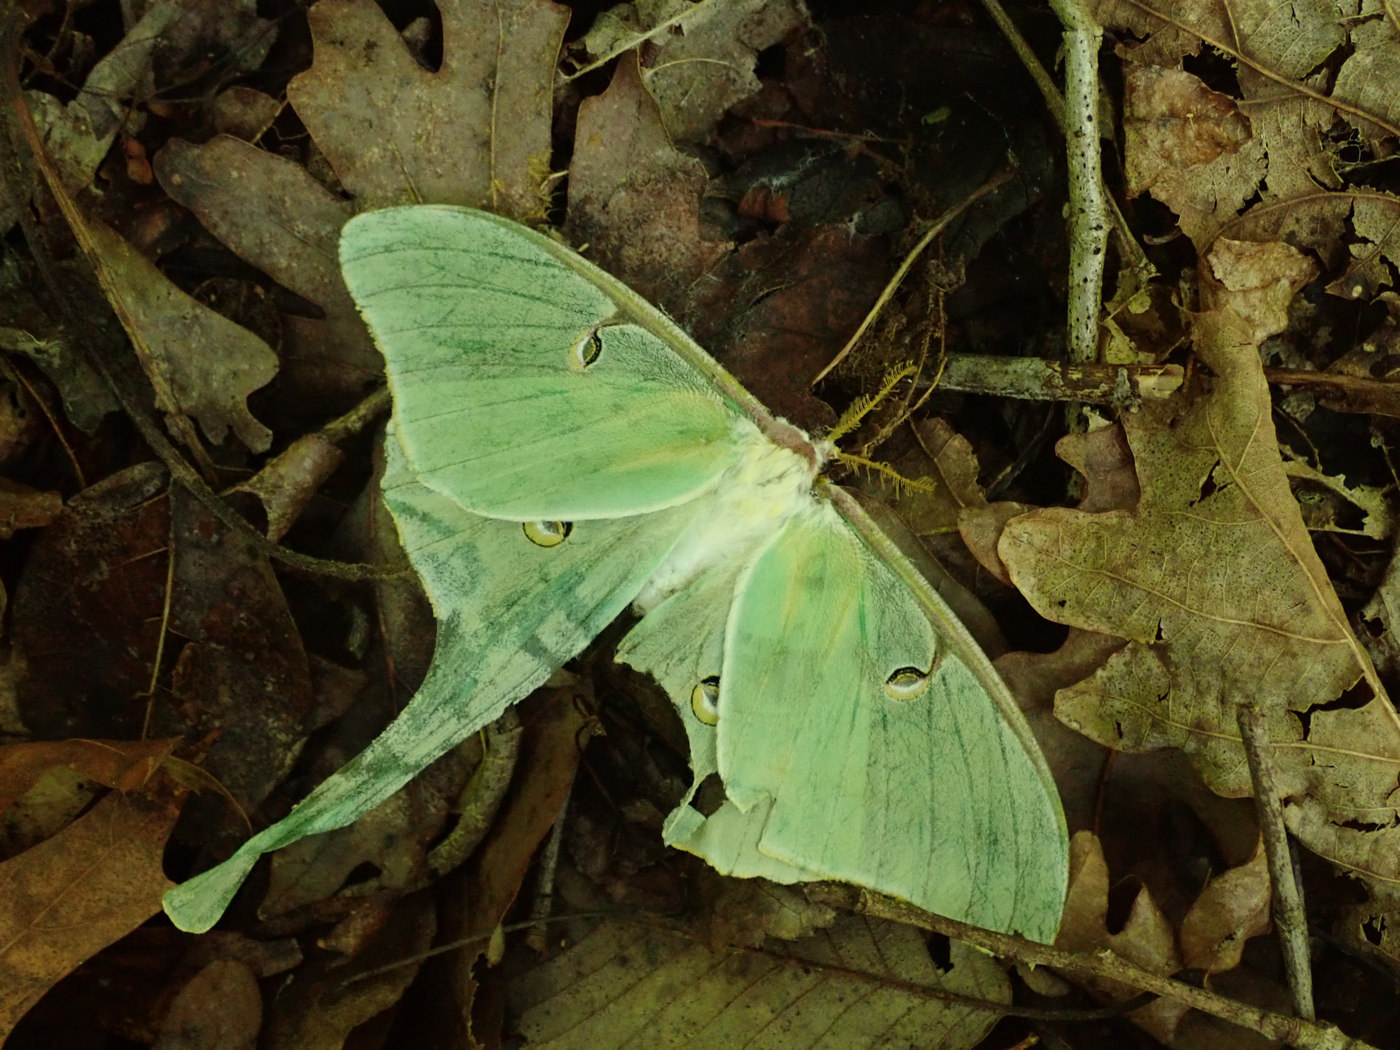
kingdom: Animalia
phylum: Arthropoda
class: Insecta
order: Lepidoptera
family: Saturniidae
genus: Actias
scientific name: Actias luna
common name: Luna moth
